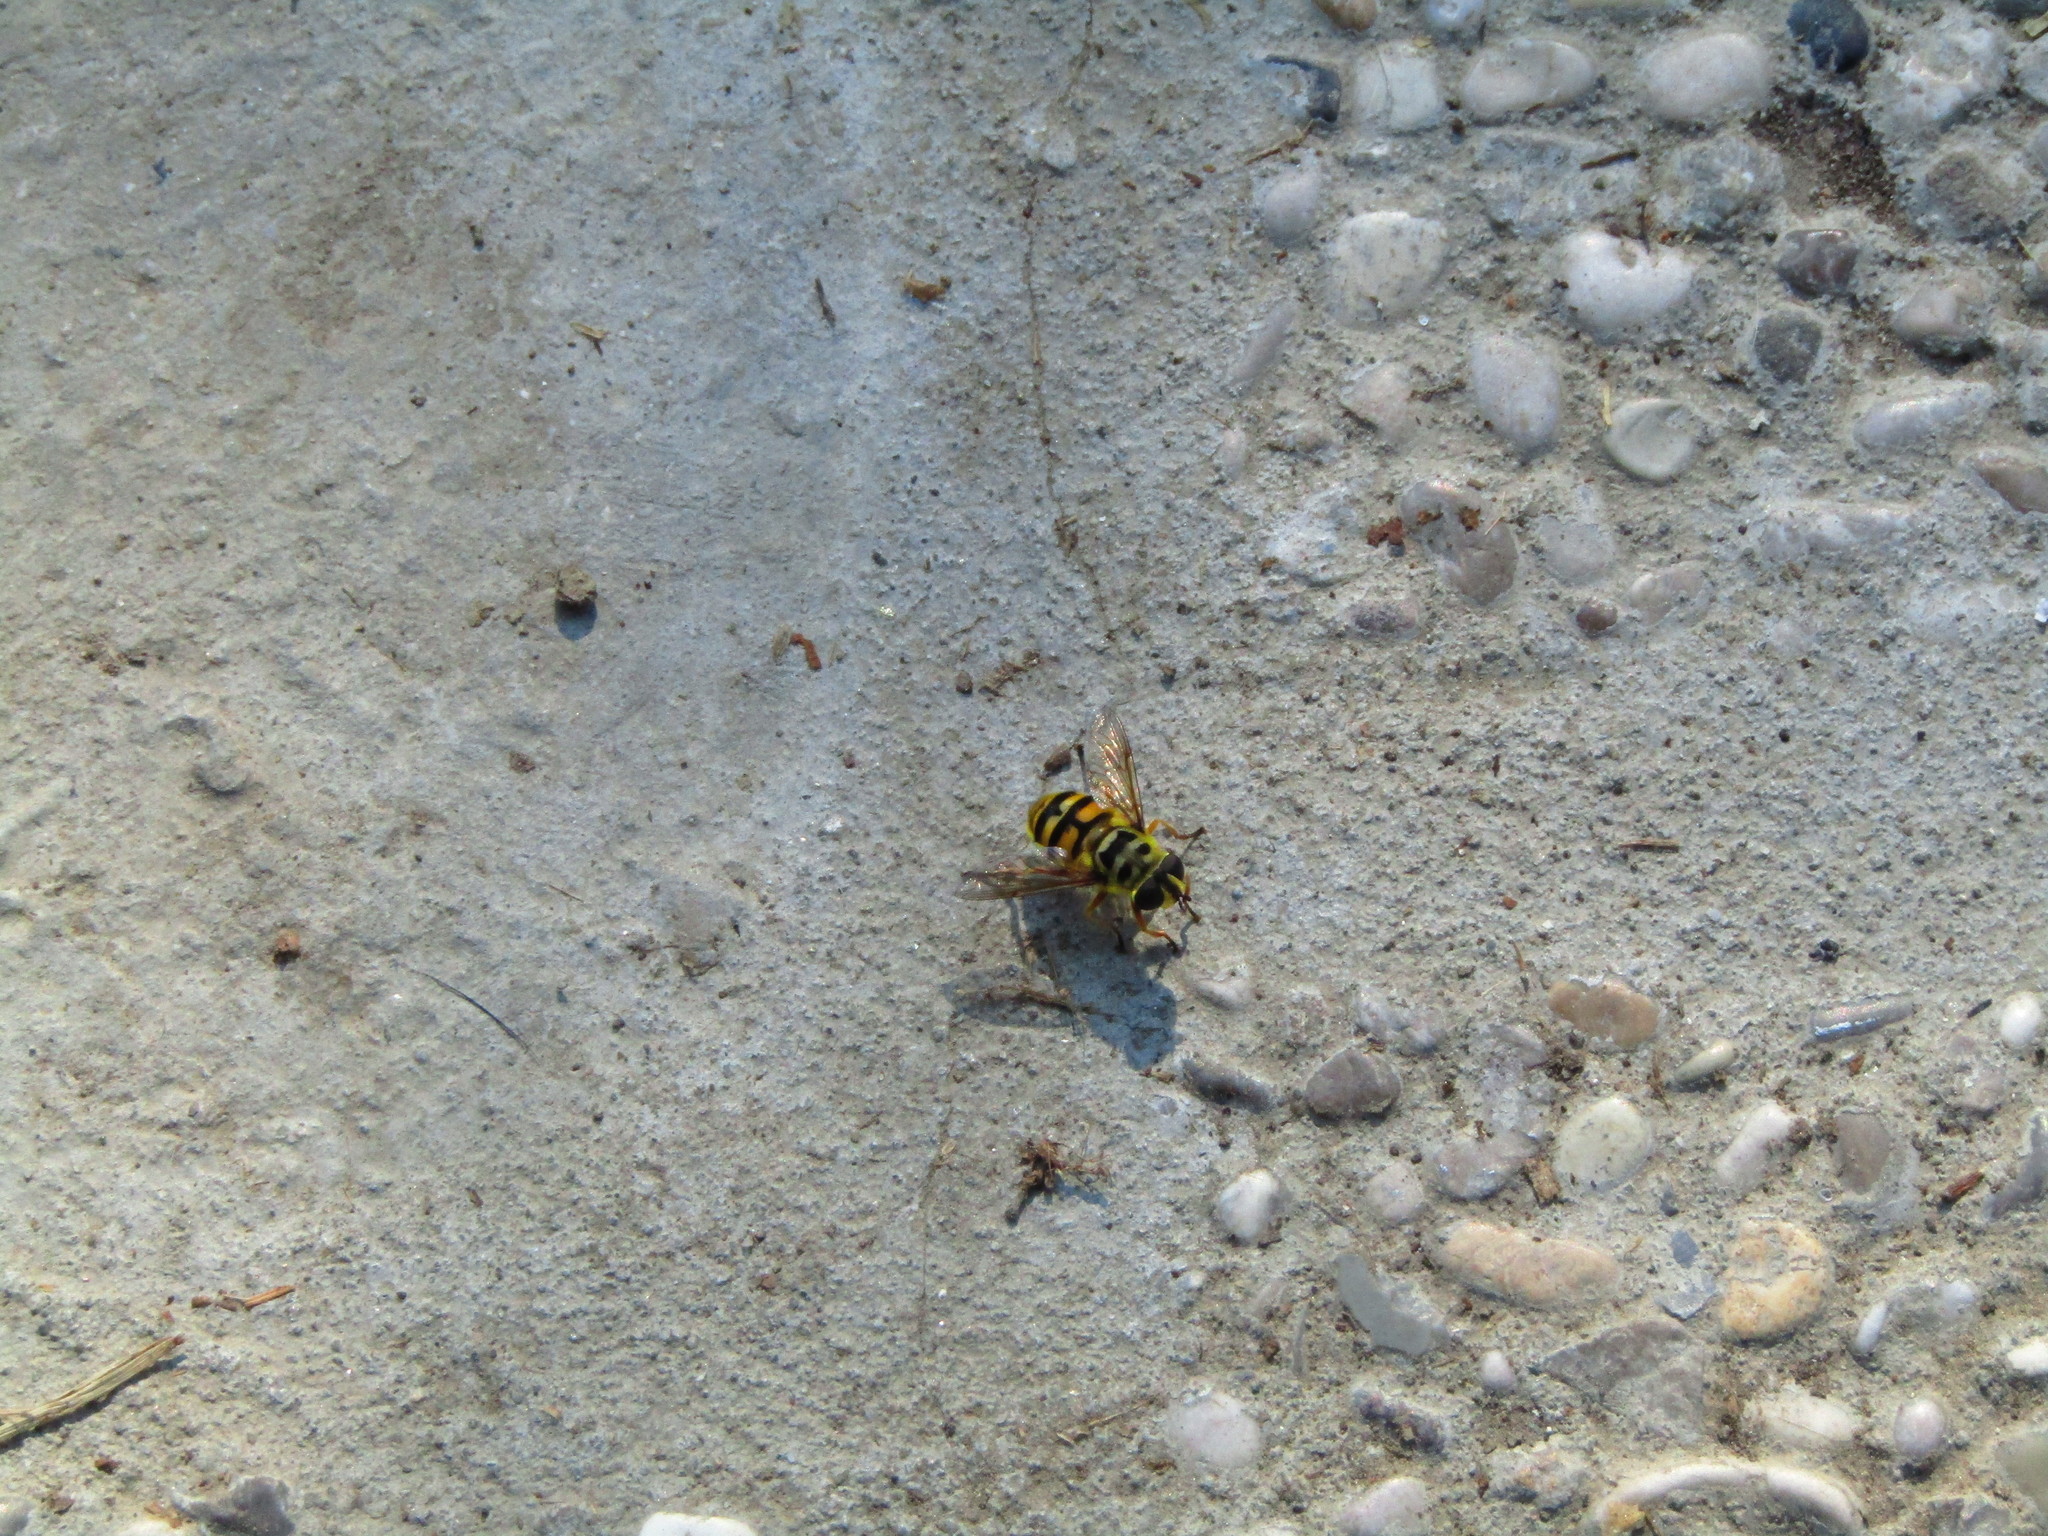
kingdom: Animalia
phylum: Arthropoda
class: Insecta
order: Diptera
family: Syrphidae
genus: Myathropa
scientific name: Myathropa florea
